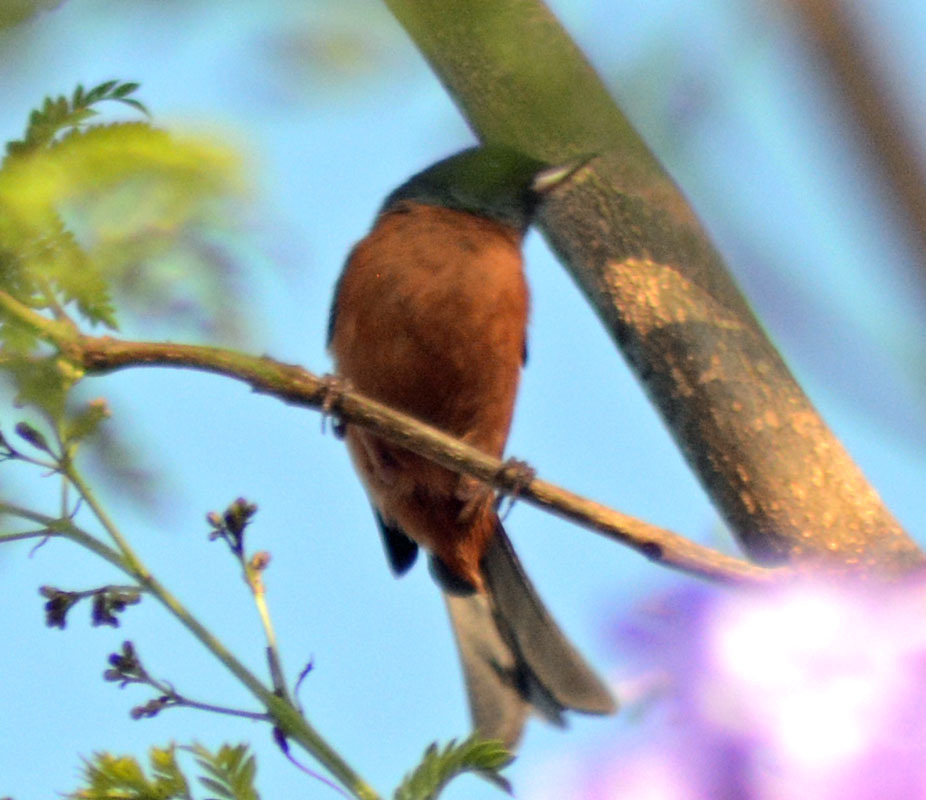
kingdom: Animalia
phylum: Chordata
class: Aves
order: Passeriformes
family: Thraupidae
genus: Diglossa
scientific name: Diglossa baritula
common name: Cinnamon-bellied flowerpiercer
